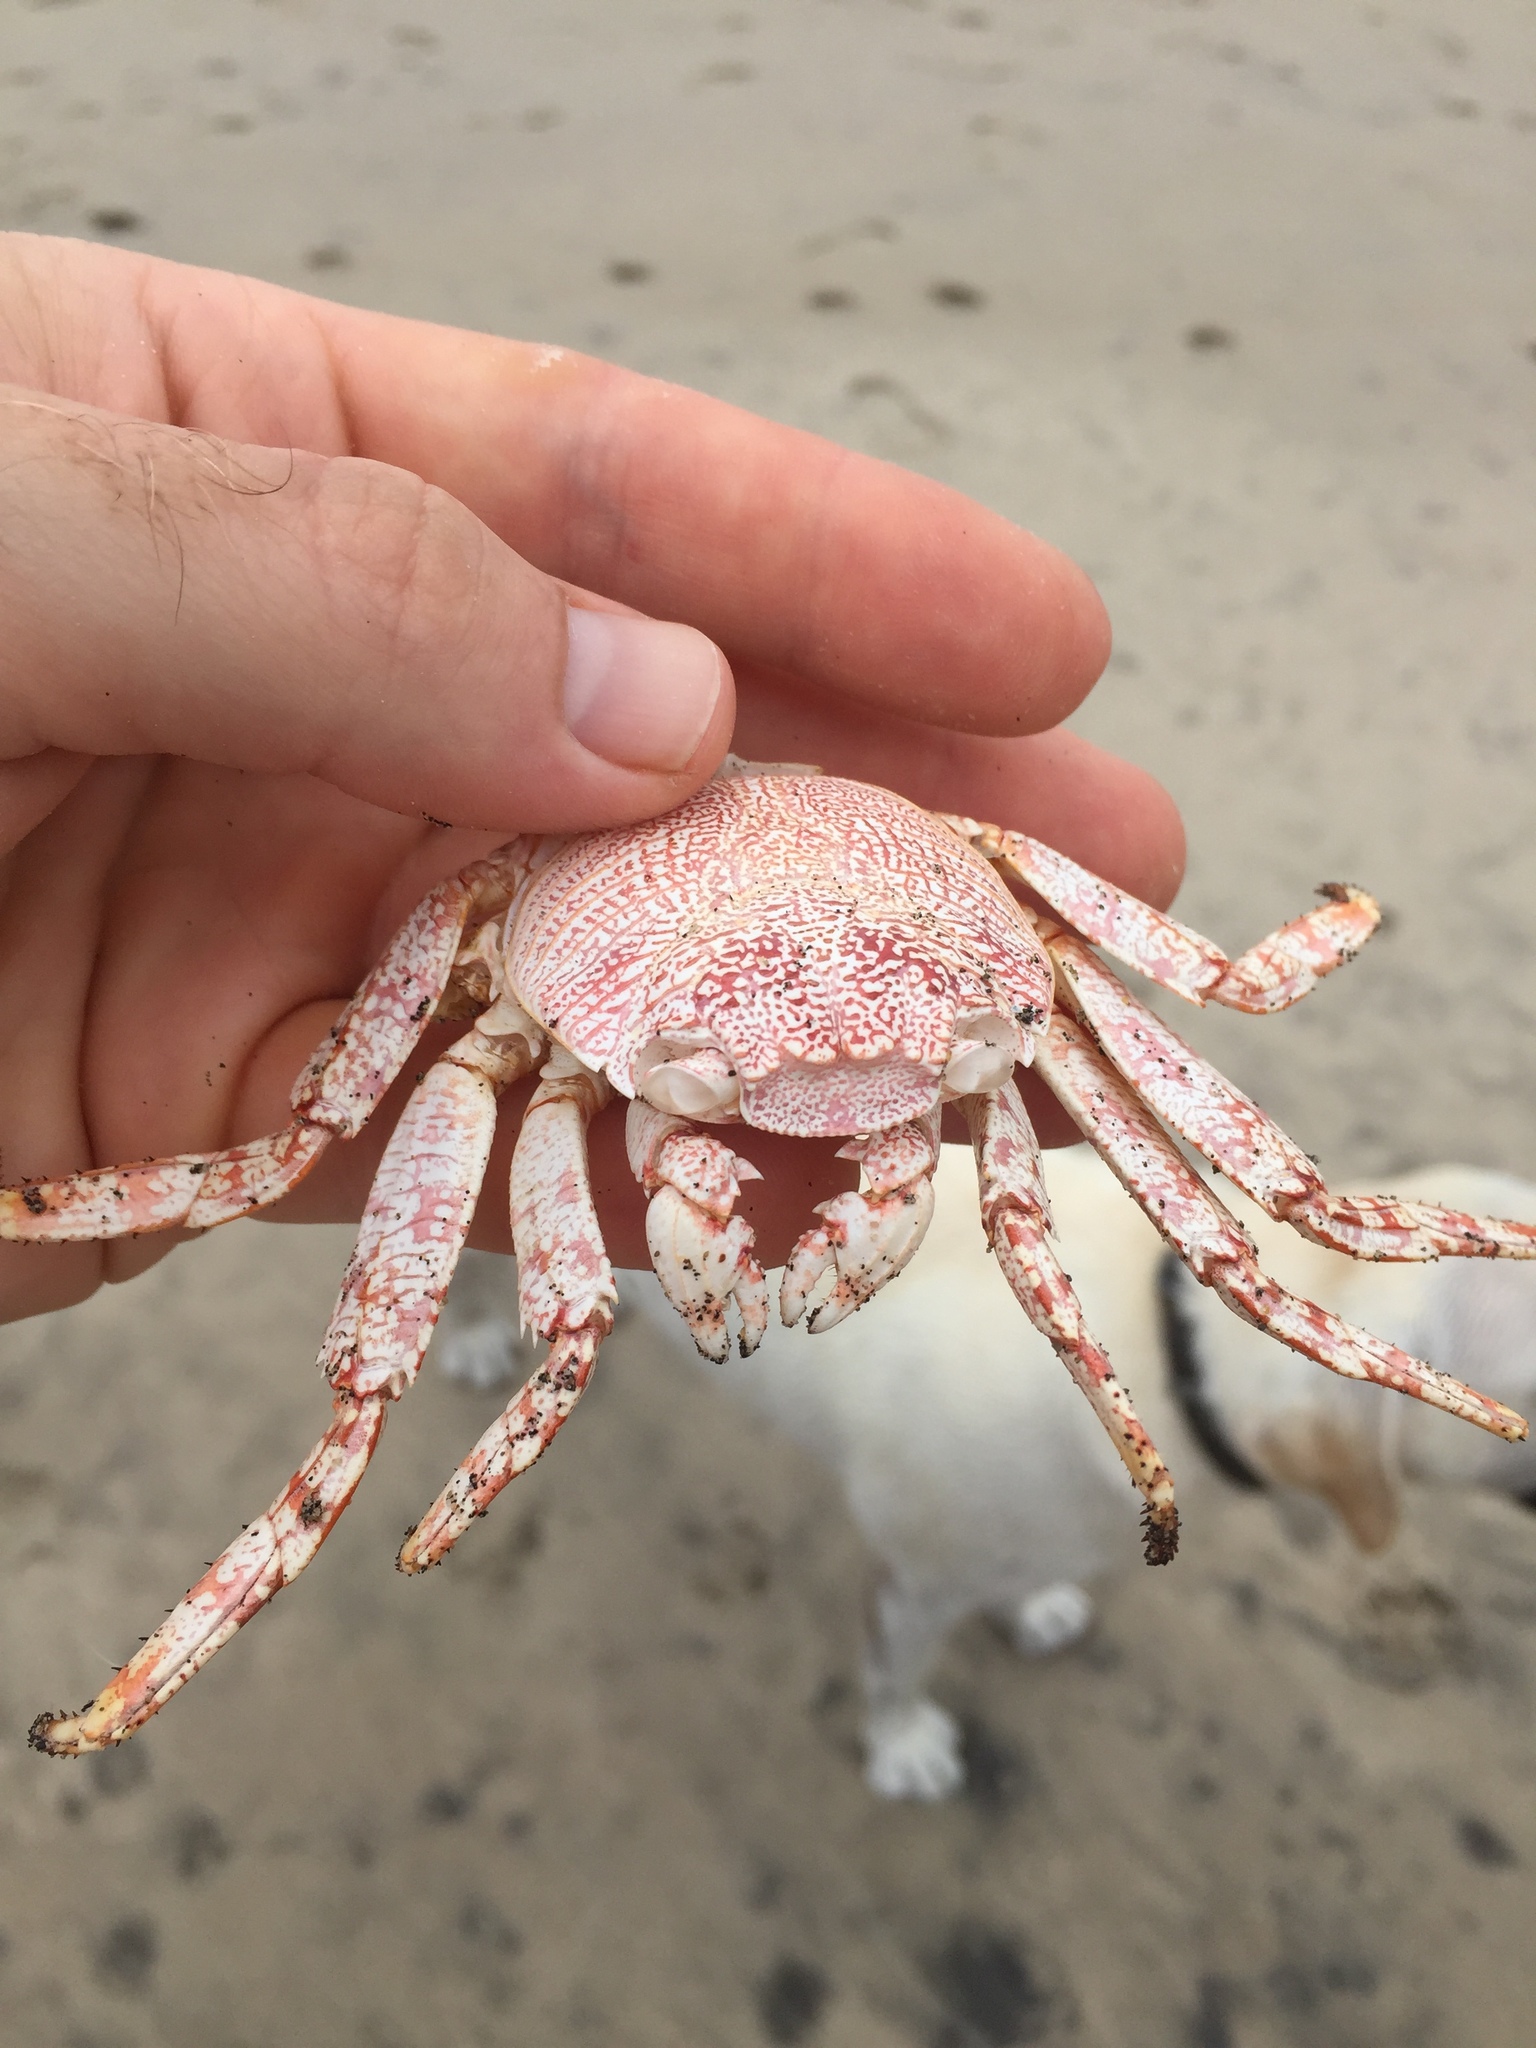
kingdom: Animalia
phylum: Arthropoda
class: Malacostraca
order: Decapoda
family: Grapsidae
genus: Grapsus
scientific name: Grapsus grapsus
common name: Sally lightfoot
